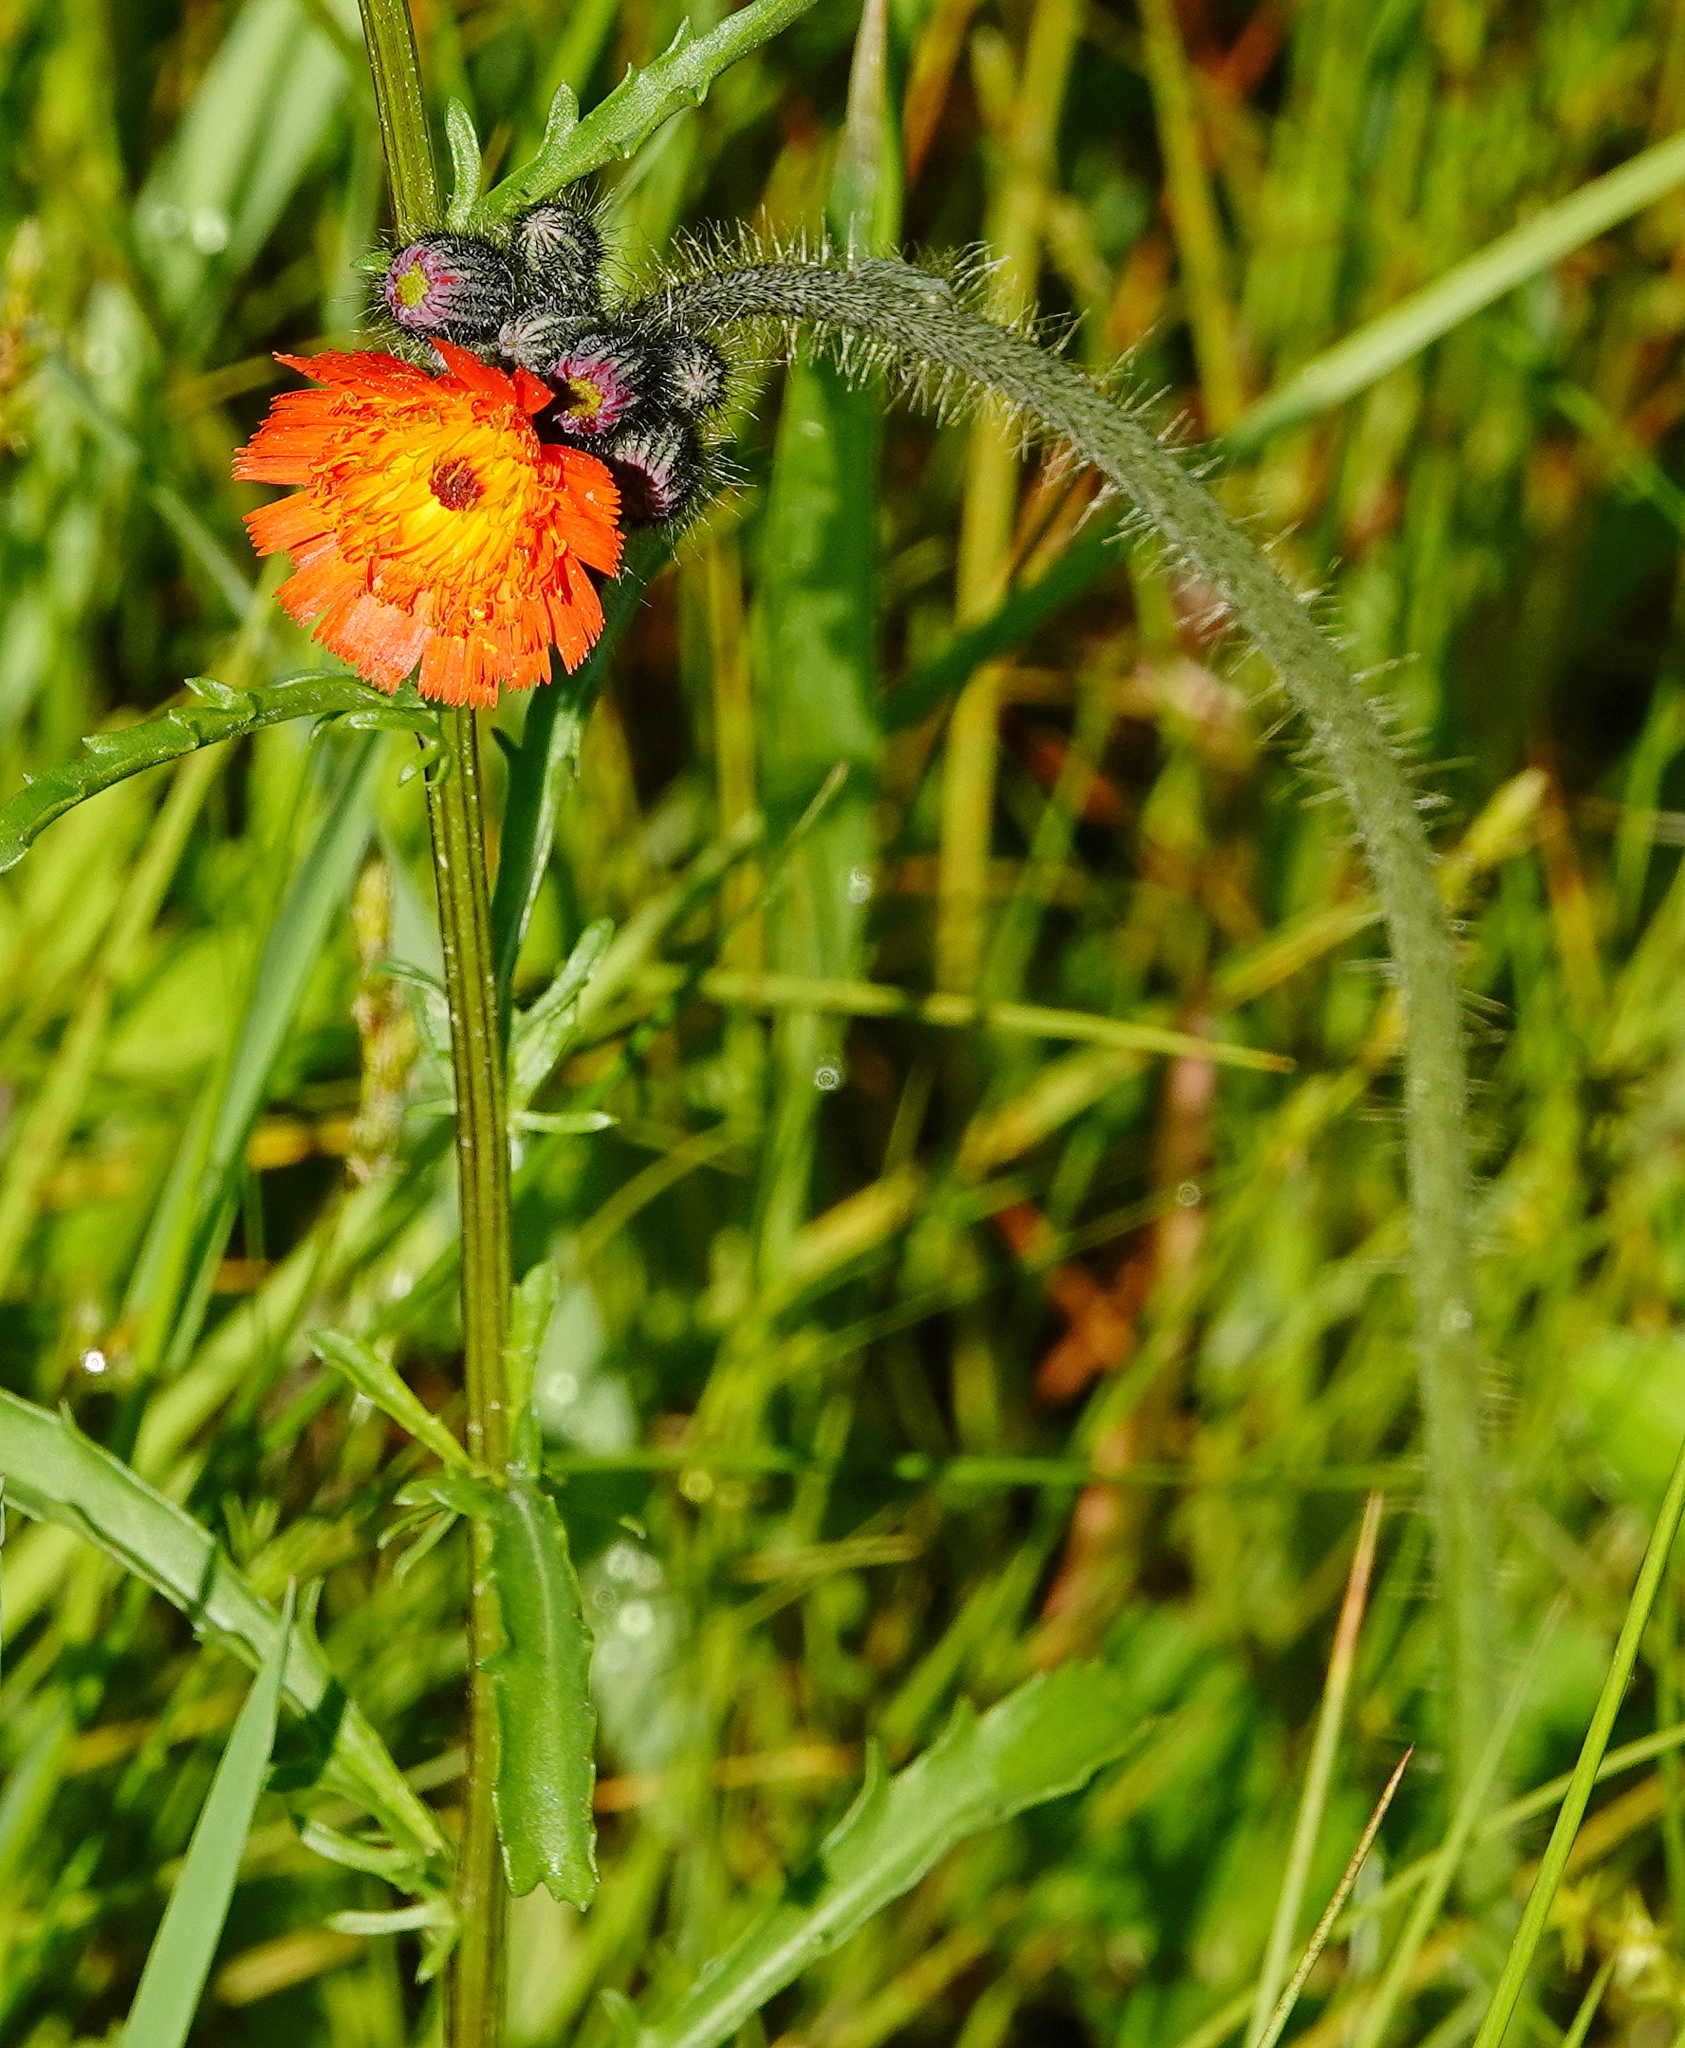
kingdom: Plantae
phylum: Tracheophyta
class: Magnoliopsida
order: Asterales
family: Asteraceae
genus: Pilosella
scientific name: Pilosella aurantiaca
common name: Fox-and-cubs
